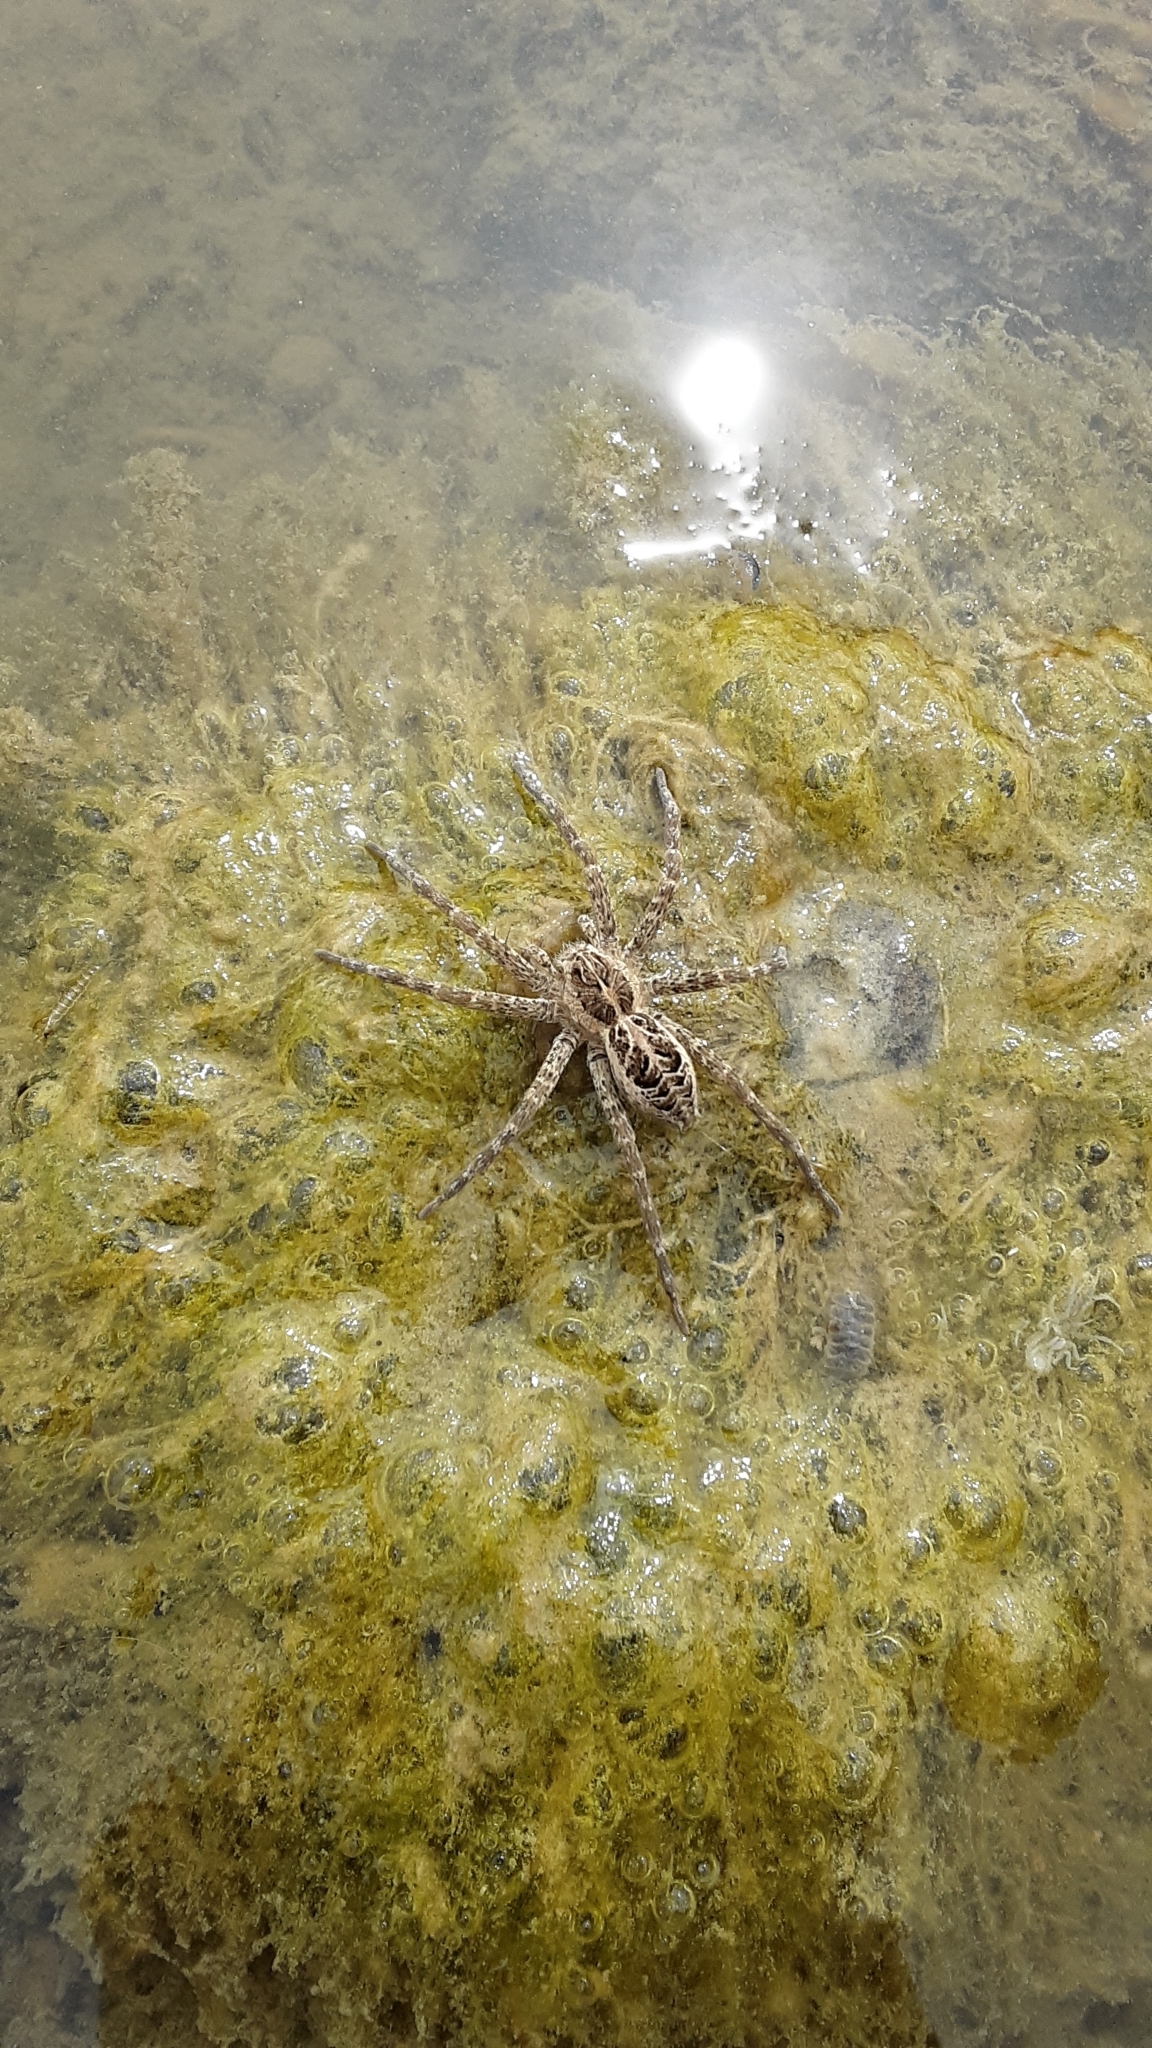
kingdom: Animalia
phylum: Arthropoda
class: Arachnida
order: Araneae
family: Pisauridae
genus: Dolomedes
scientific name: Dolomedes scriptus
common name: Striped fishing spider
